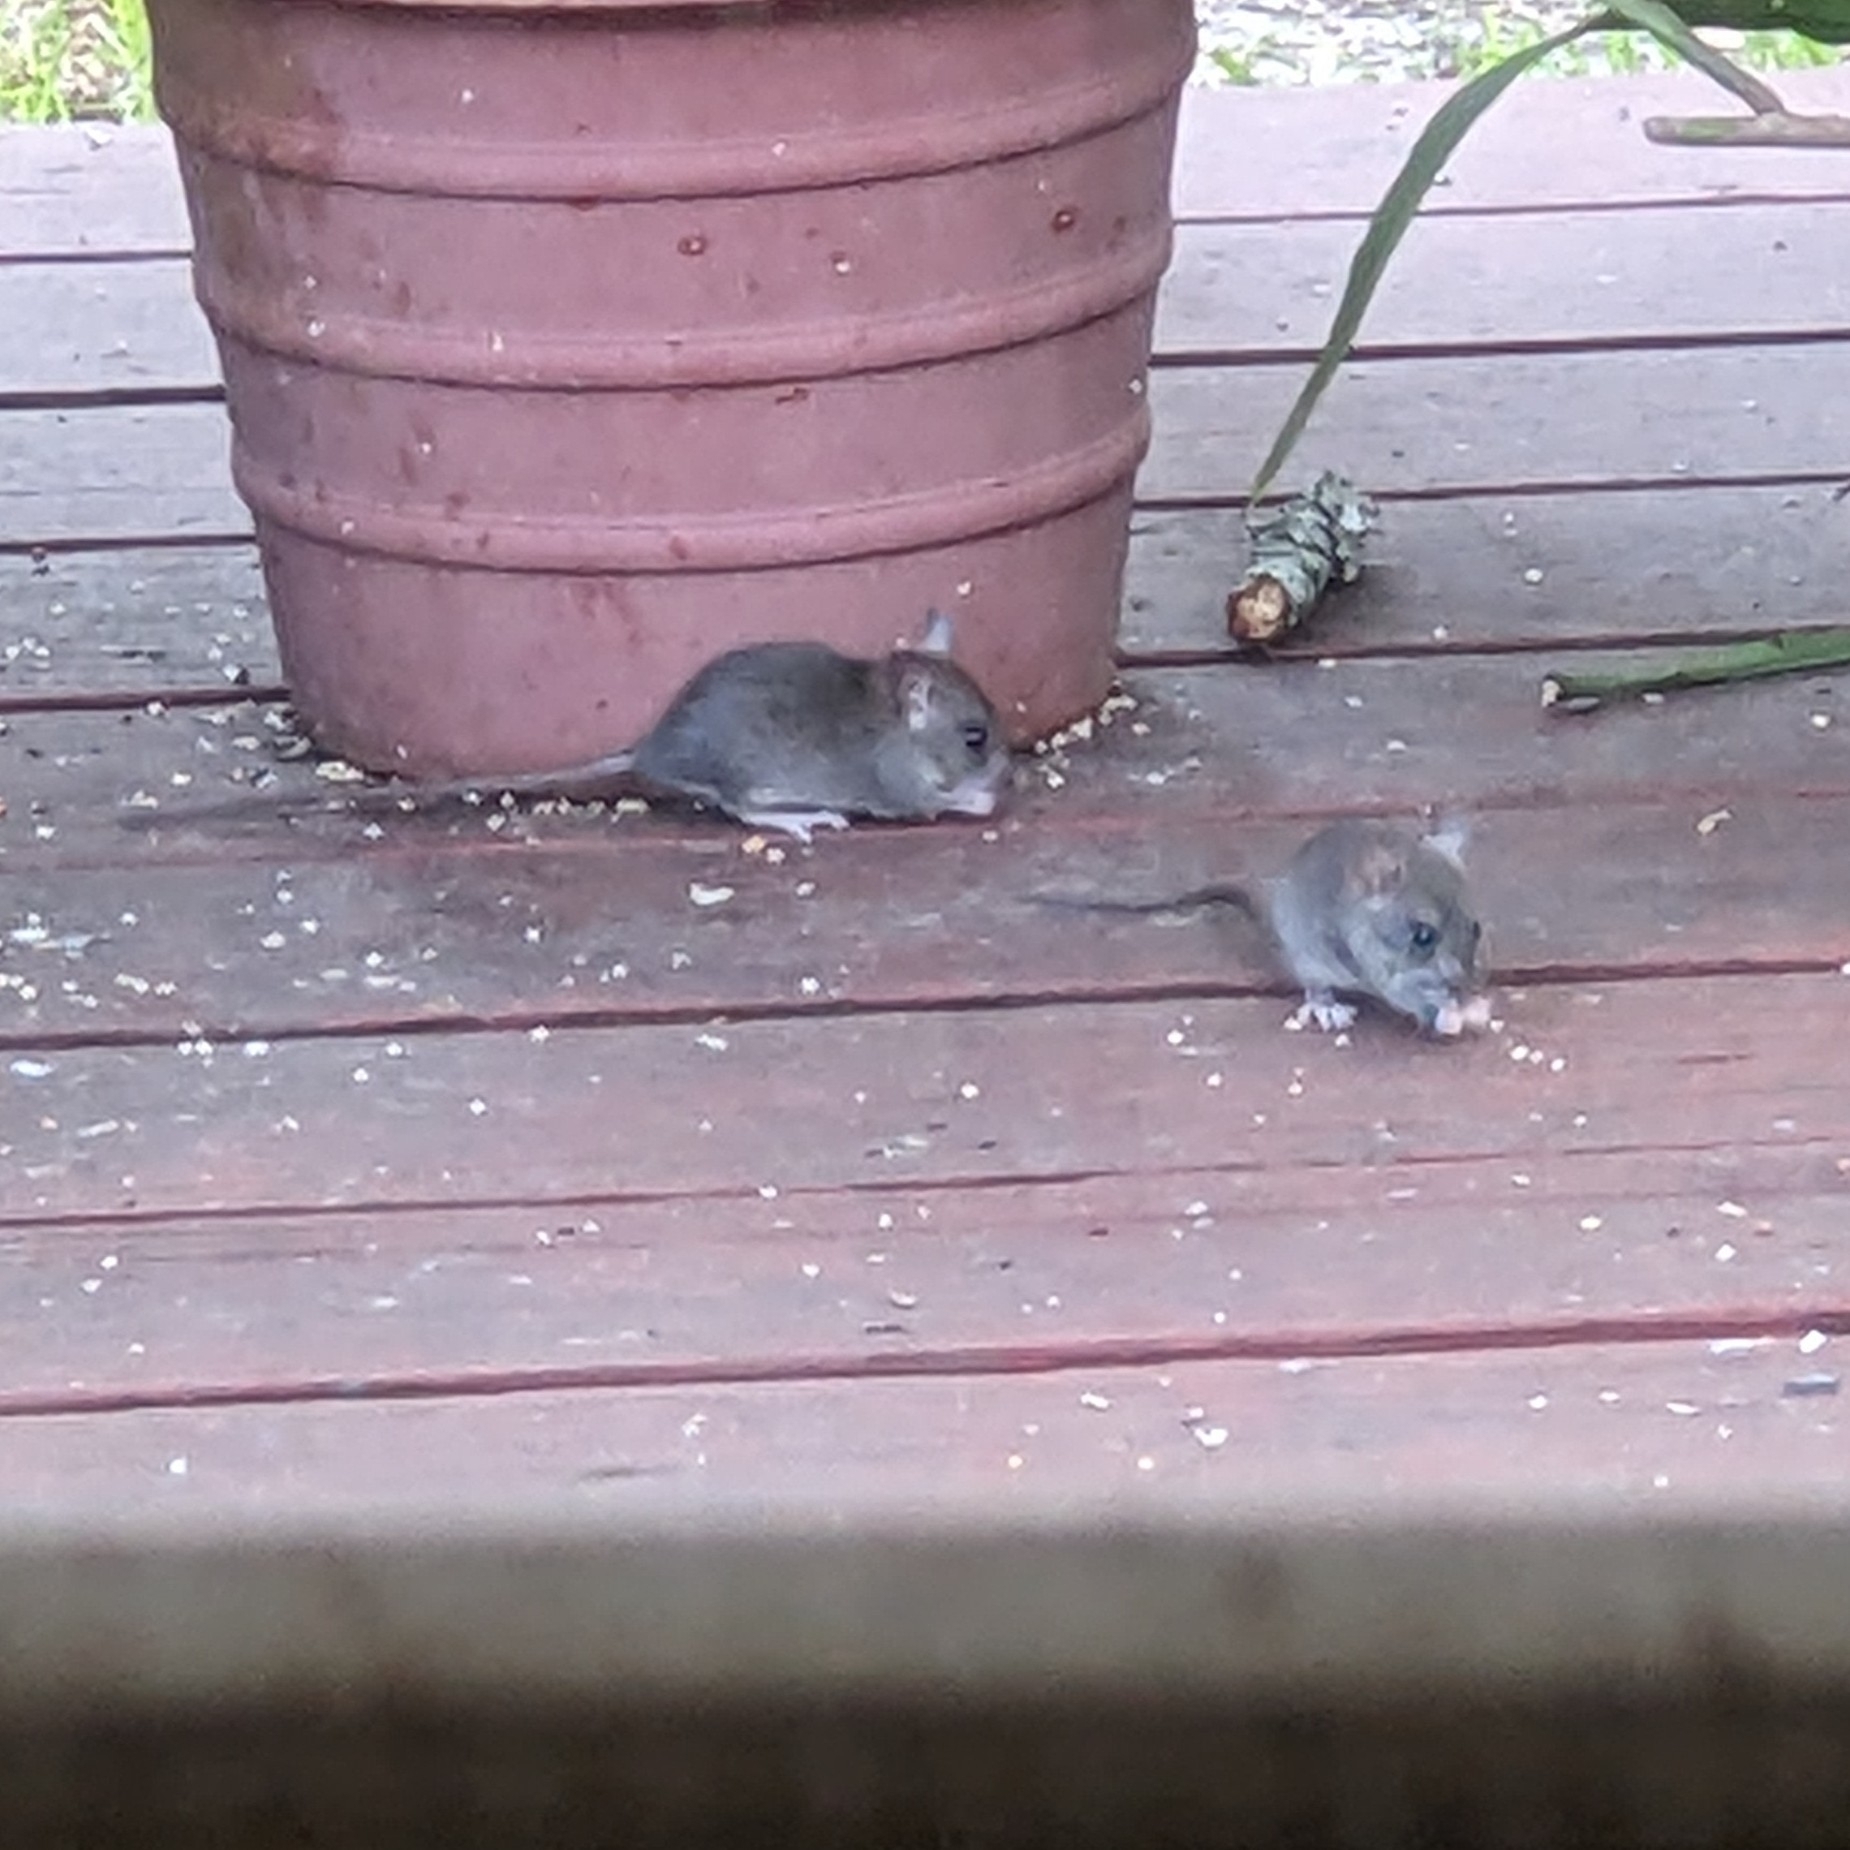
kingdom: Animalia
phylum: Chordata
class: Mammalia
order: Rodentia
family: Muridae
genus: Rattus
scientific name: Rattus rattus
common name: Black rat
